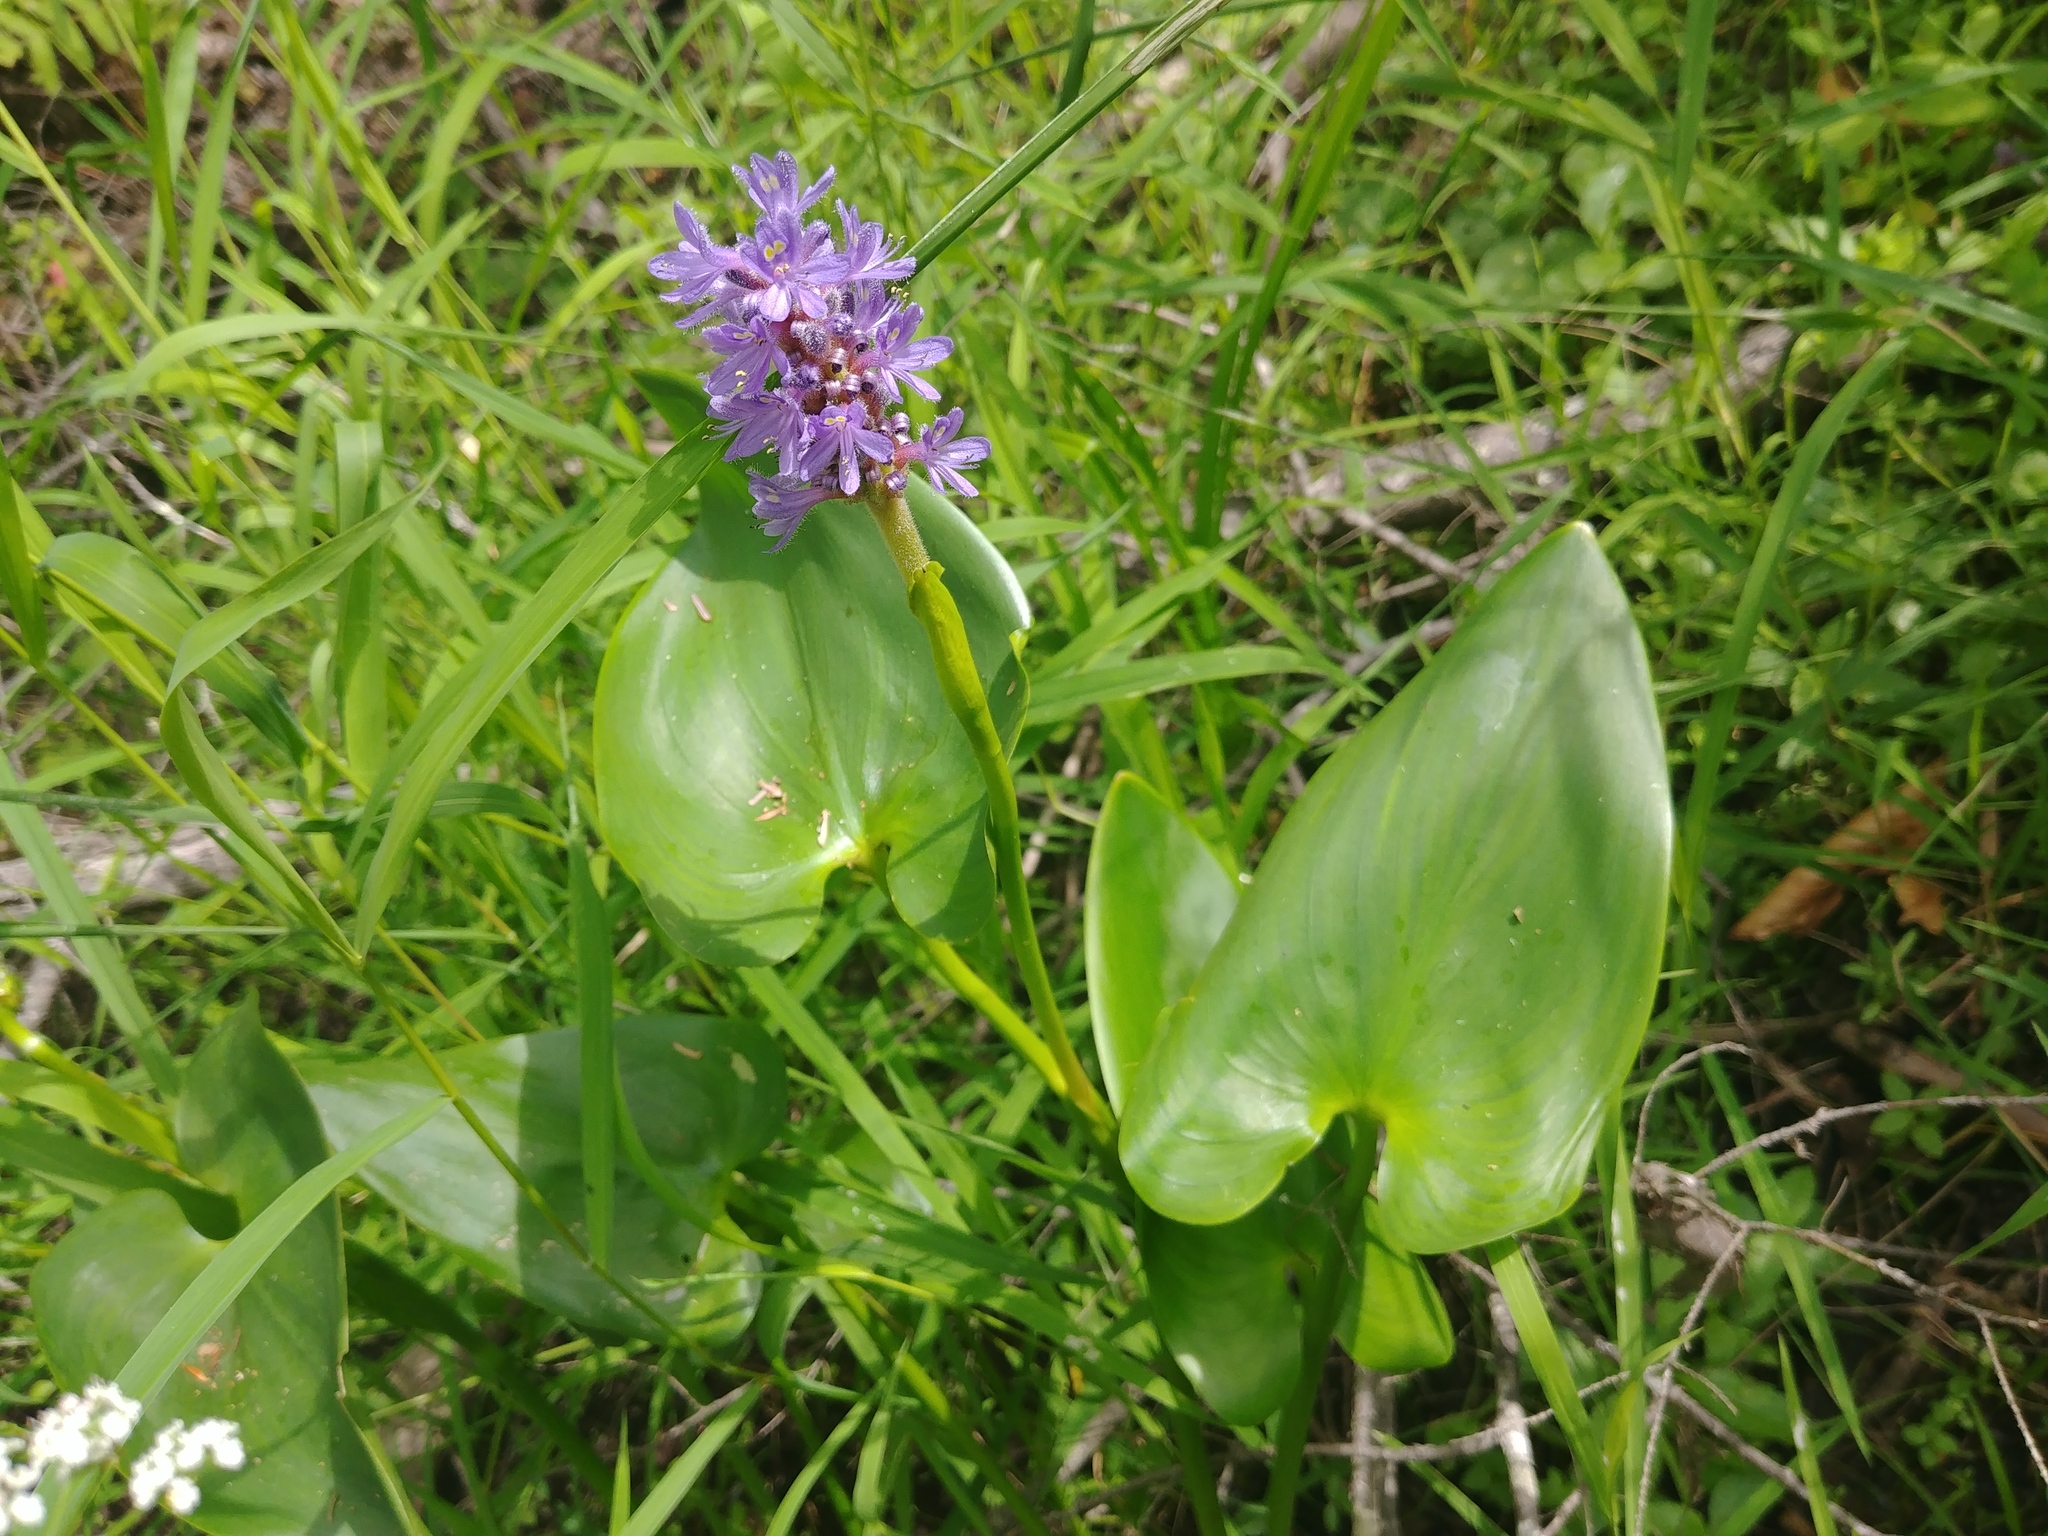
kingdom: Plantae
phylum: Tracheophyta
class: Liliopsida
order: Commelinales
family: Pontederiaceae
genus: Pontederia
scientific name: Pontederia cordata
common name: Pickerelweed
